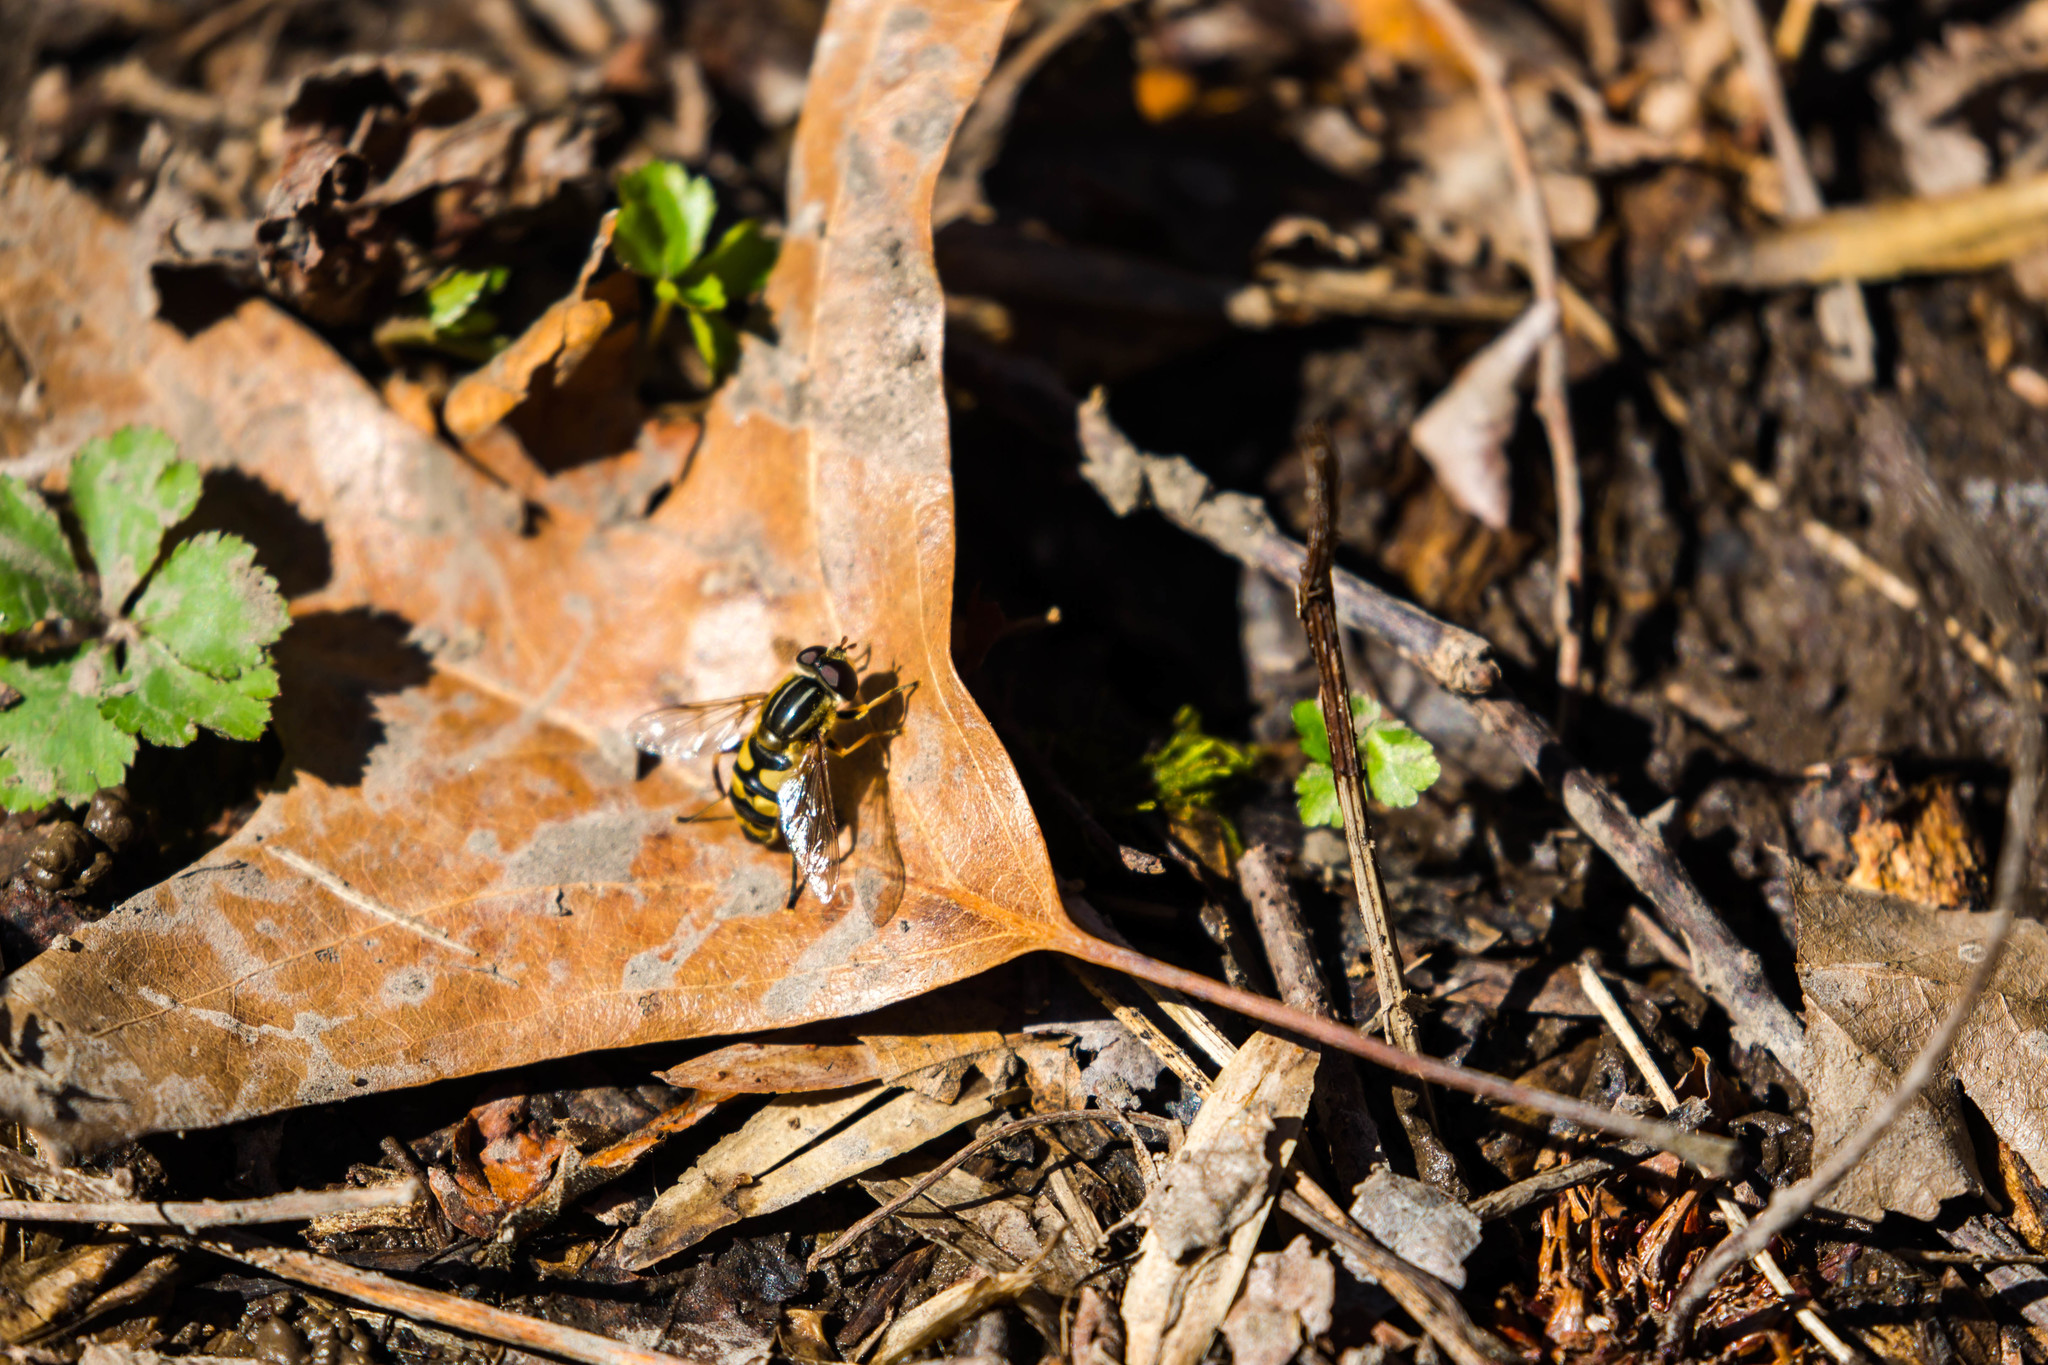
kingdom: Animalia
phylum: Arthropoda
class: Insecta
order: Diptera
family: Syrphidae
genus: Helophilus
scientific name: Helophilus fasciatus
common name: Narrow-headed marsh fly
